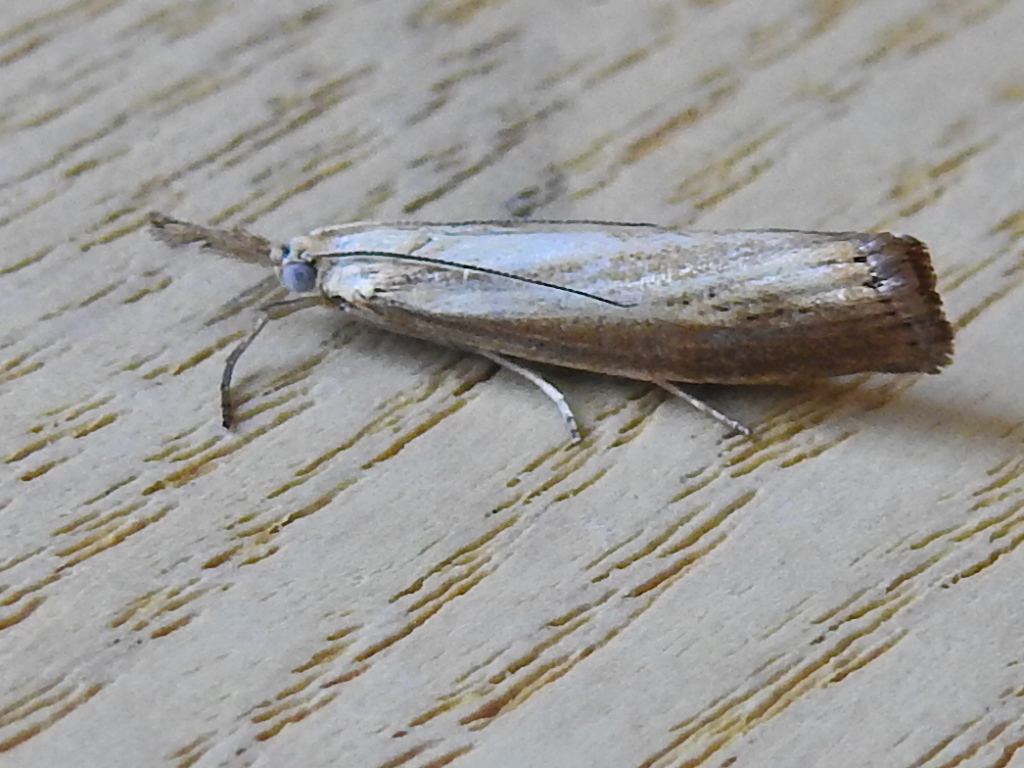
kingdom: Animalia
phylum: Arthropoda
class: Insecta
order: Lepidoptera
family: Crambidae
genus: Agriphila
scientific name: Agriphila straminella
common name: Straw grass-veneer
